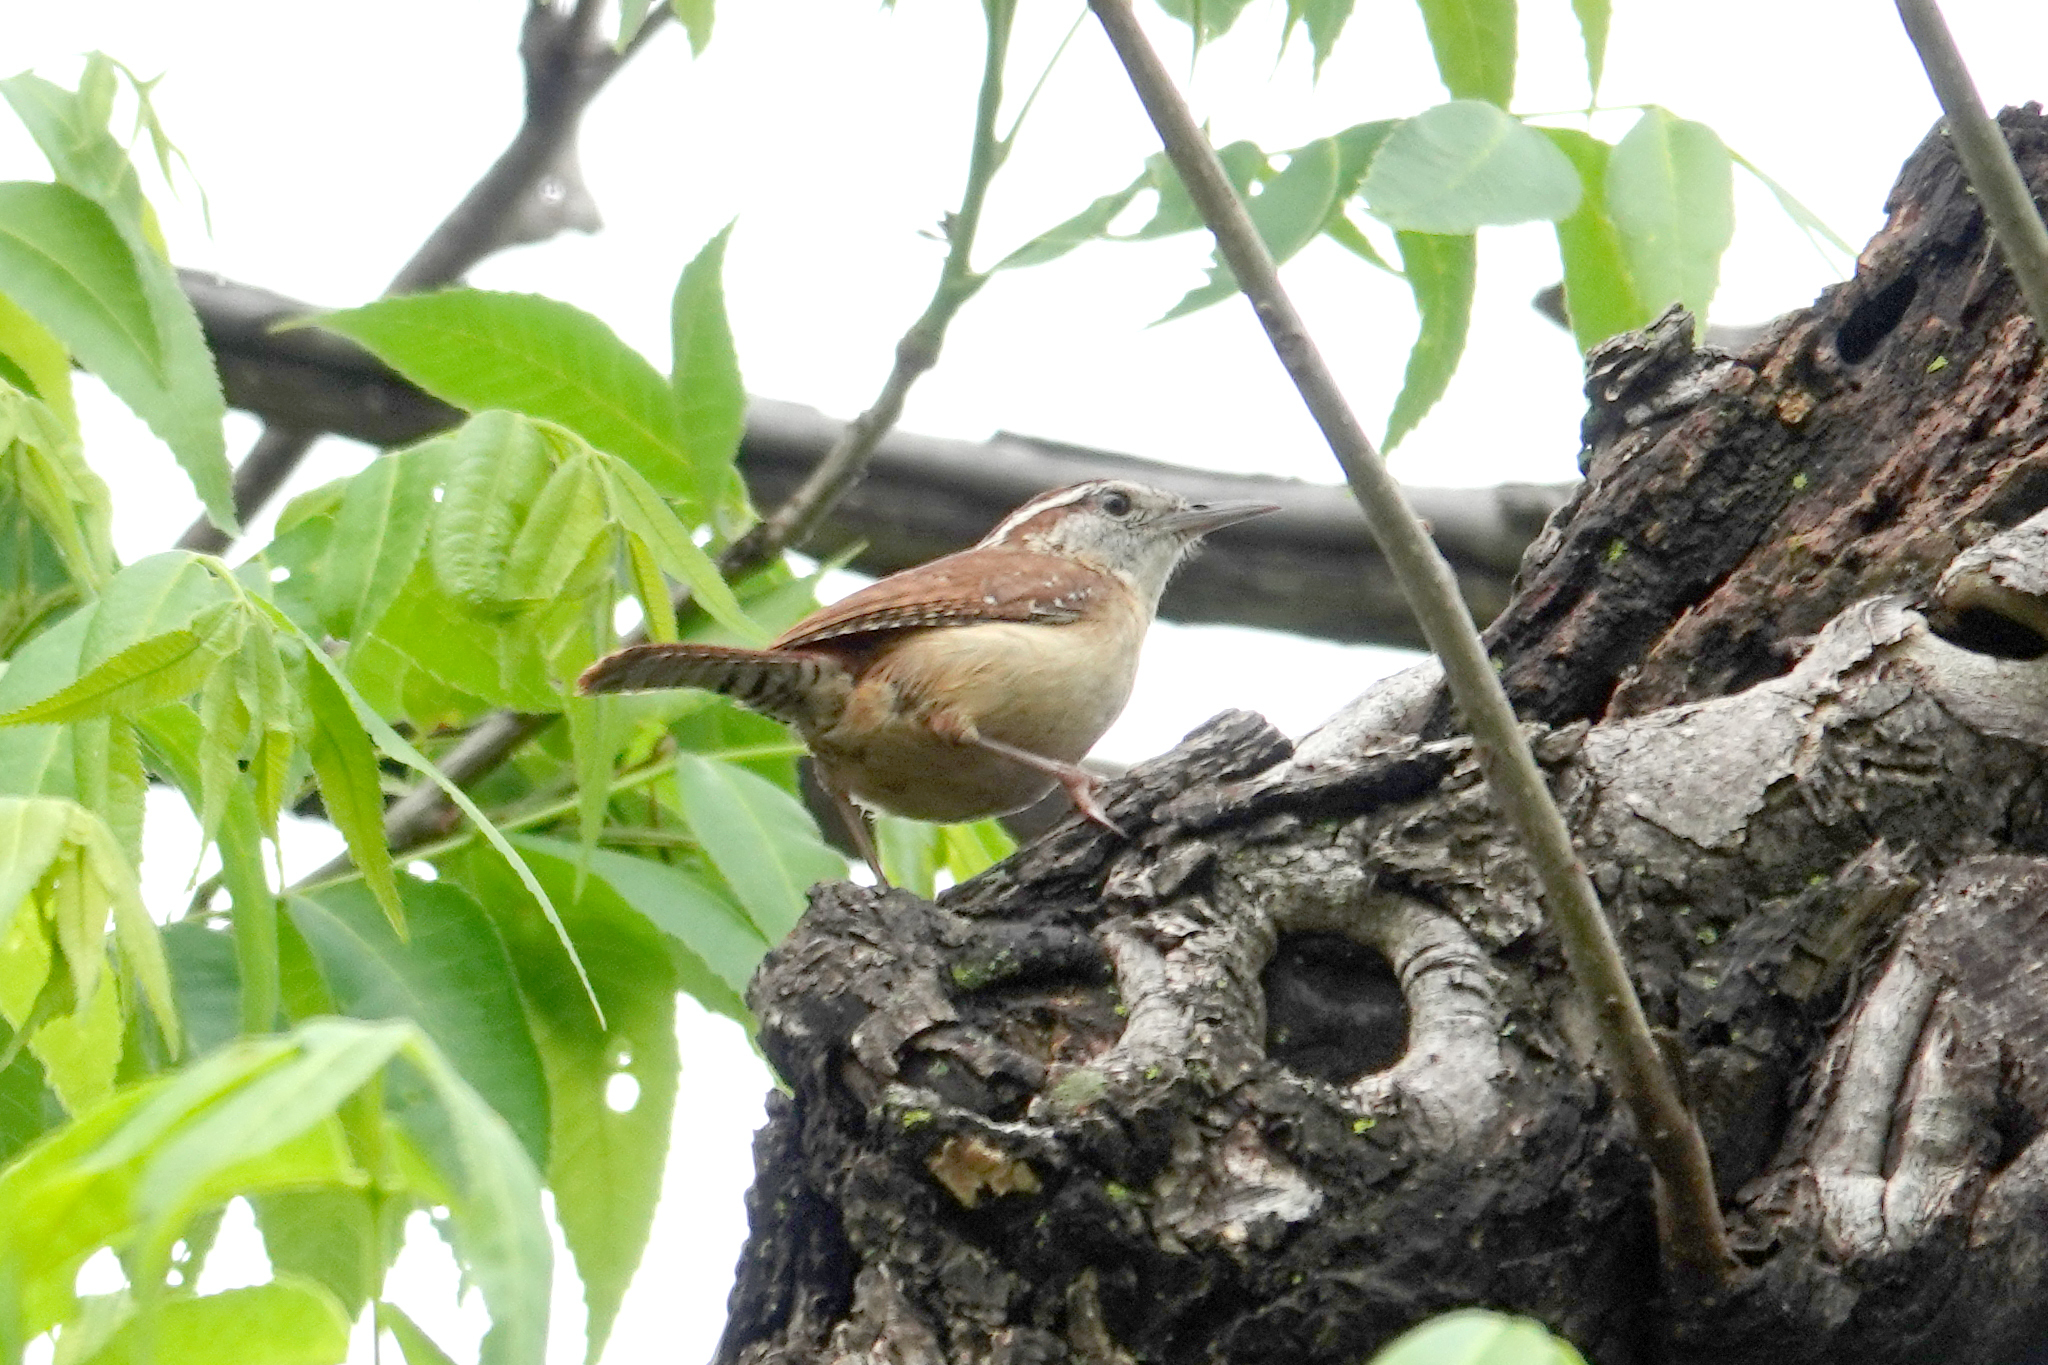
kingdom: Animalia
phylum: Chordata
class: Aves
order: Passeriformes
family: Troglodytidae
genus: Thryothorus
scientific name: Thryothorus ludovicianus
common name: Carolina wren
